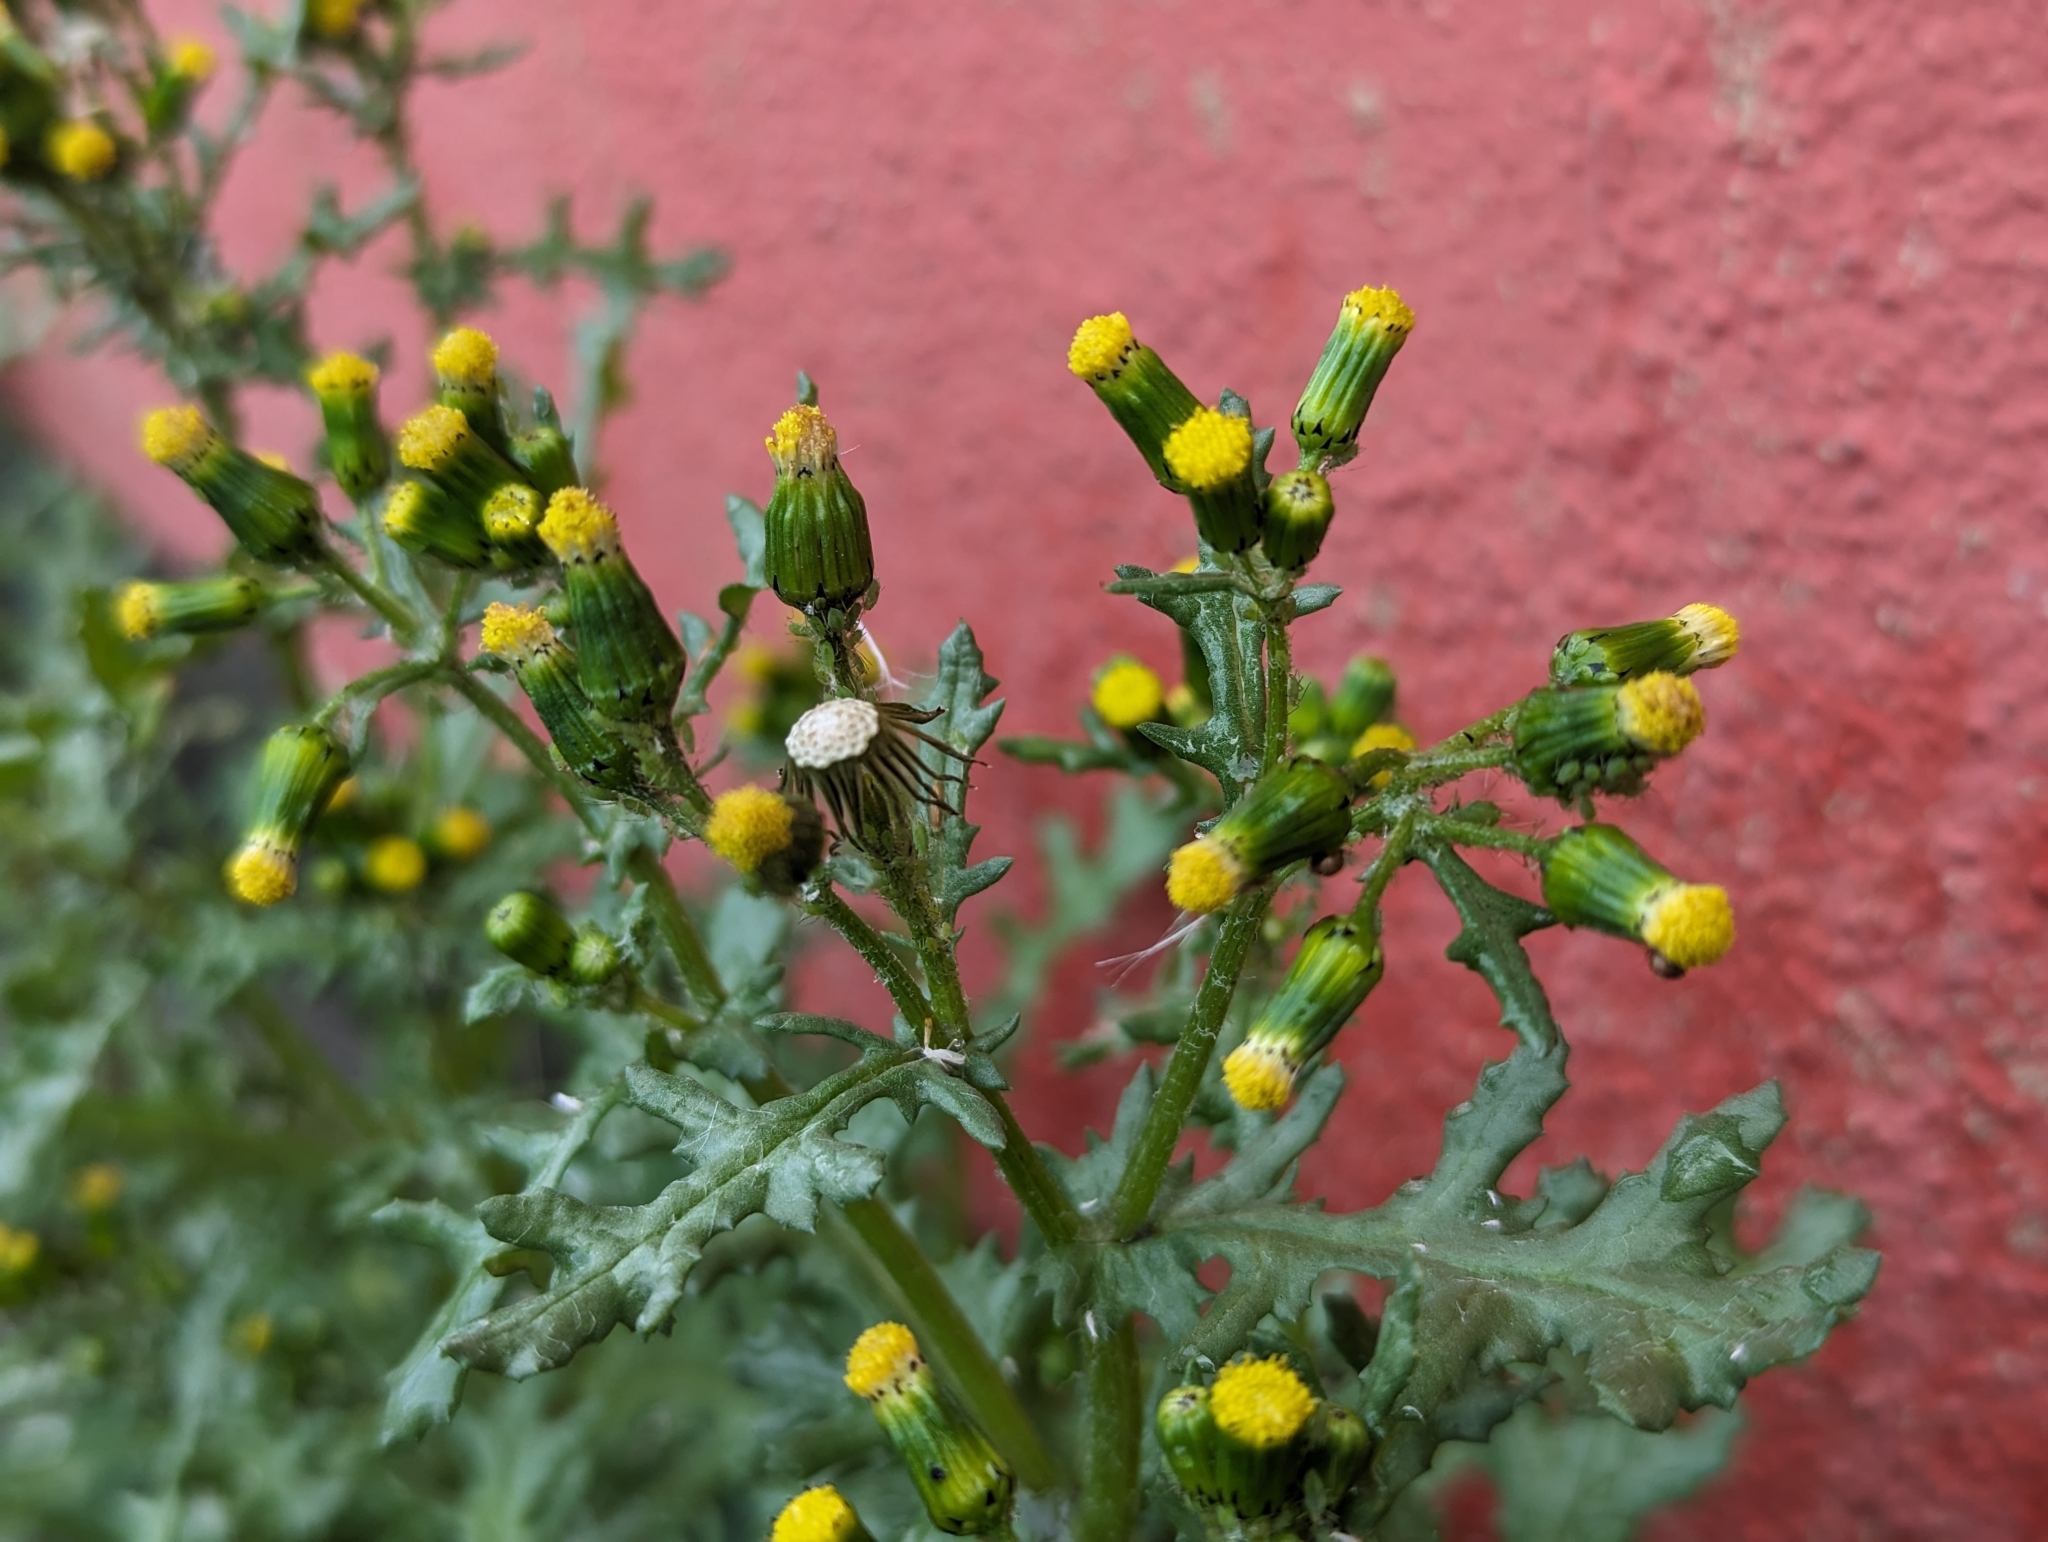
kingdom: Plantae
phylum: Tracheophyta
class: Magnoliopsida
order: Asterales
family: Asteraceae
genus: Senecio
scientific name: Senecio vulgaris
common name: Old-man-in-the-spring
